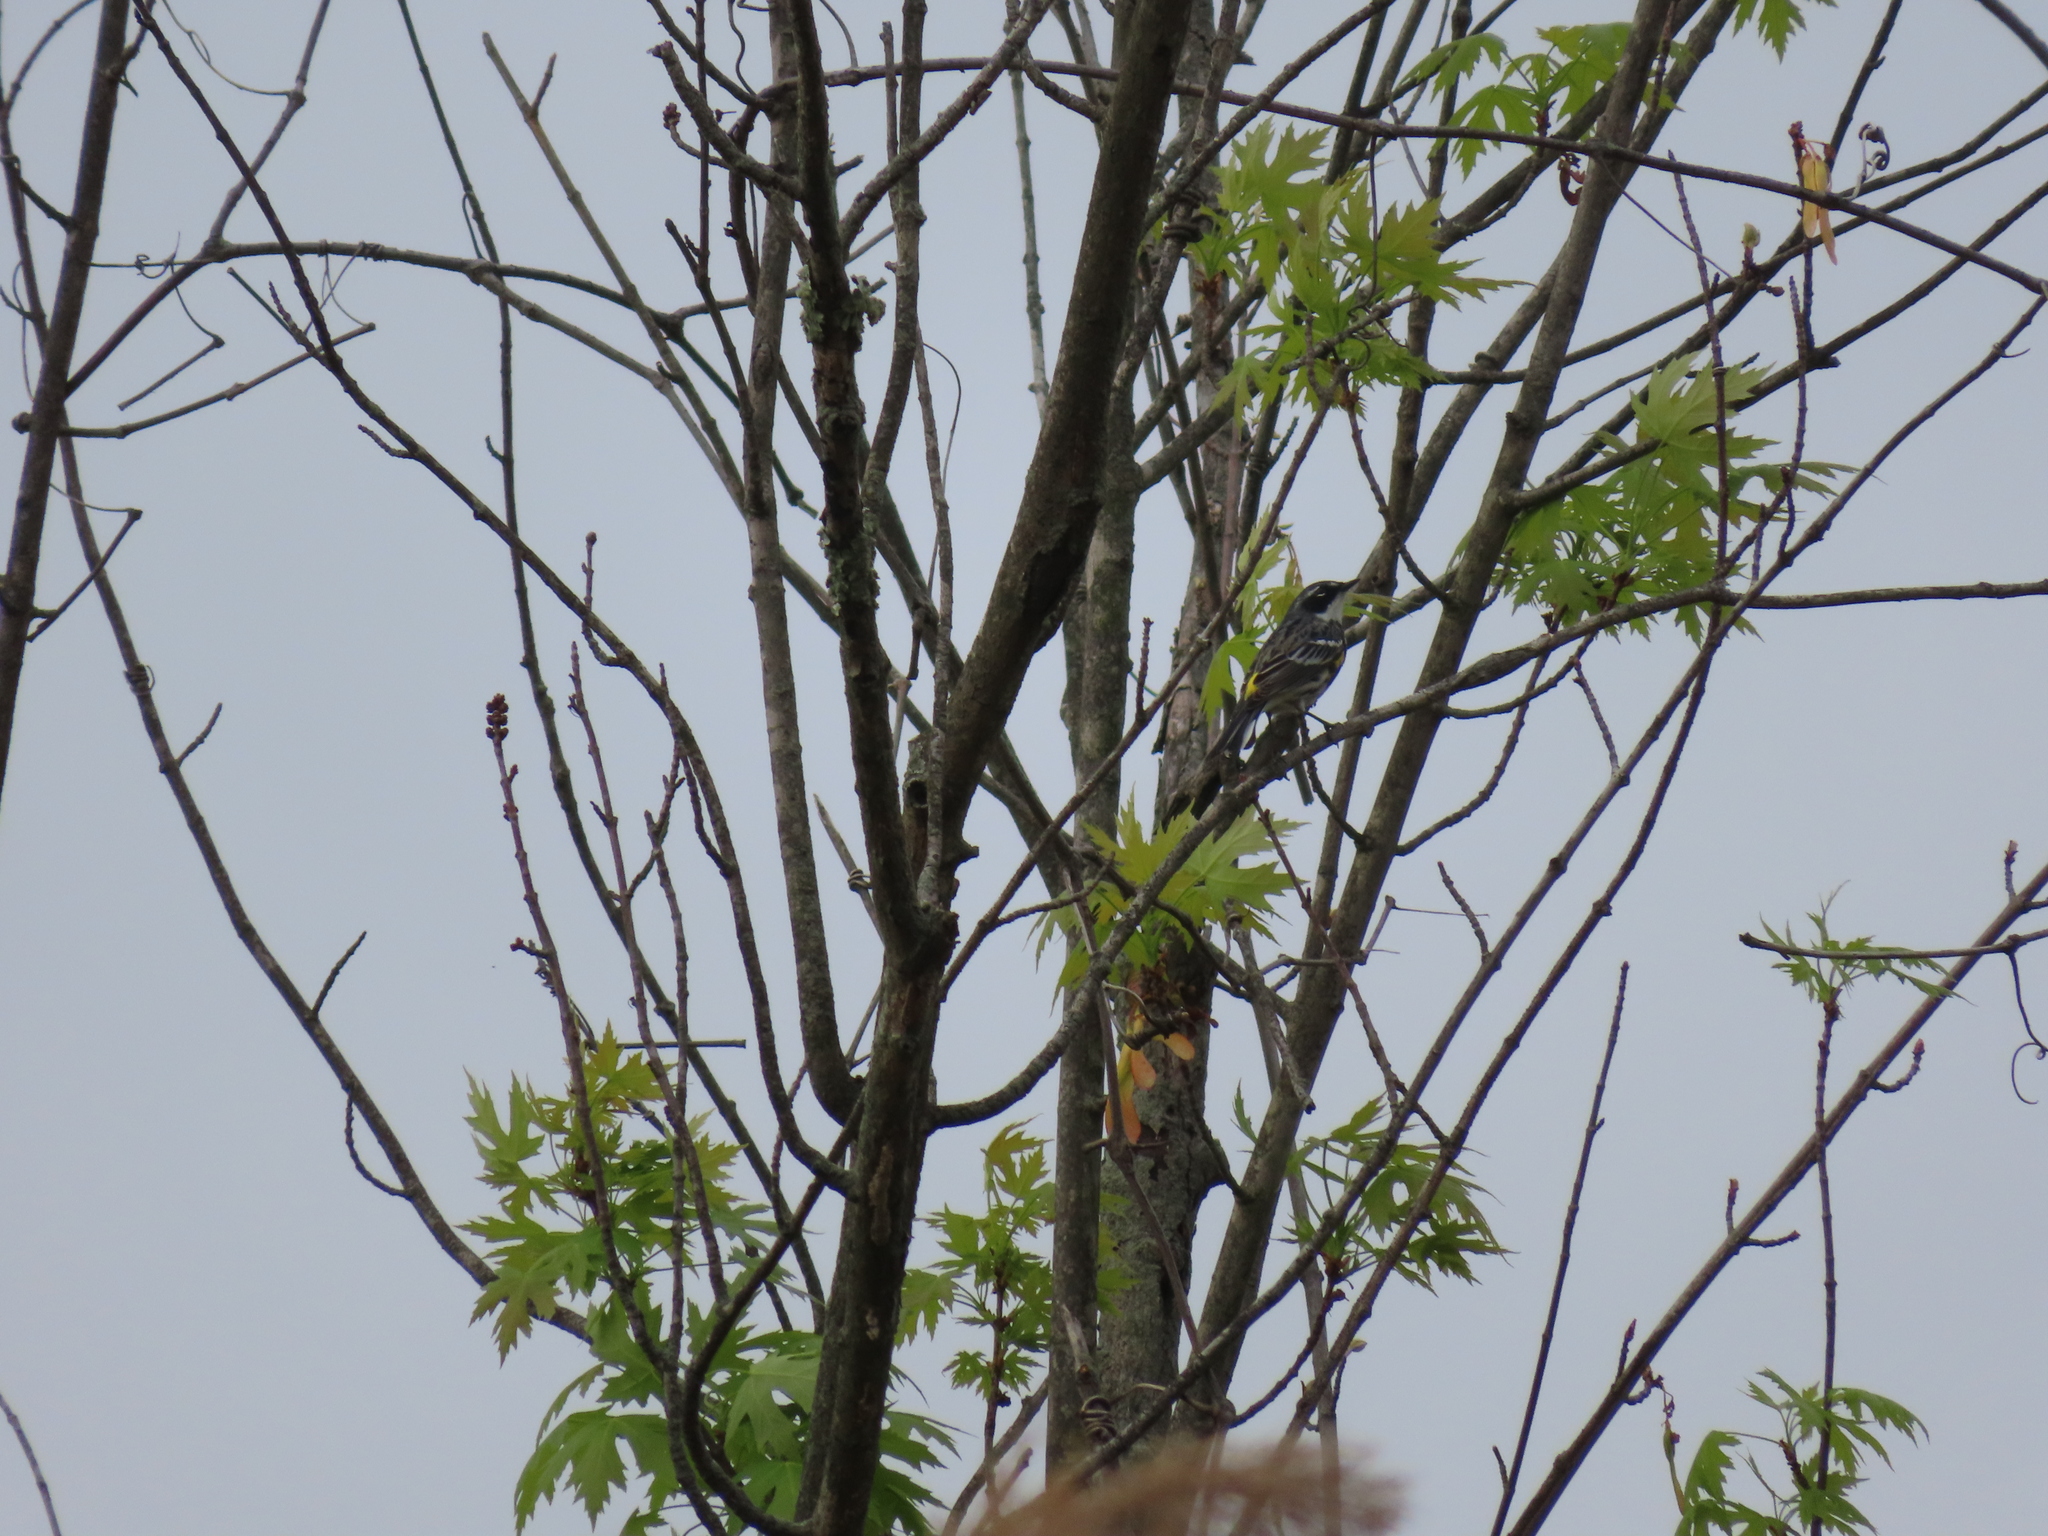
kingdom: Animalia
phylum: Chordata
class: Aves
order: Passeriformes
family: Parulidae
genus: Setophaga
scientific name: Setophaga coronata
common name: Myrtle warbler
